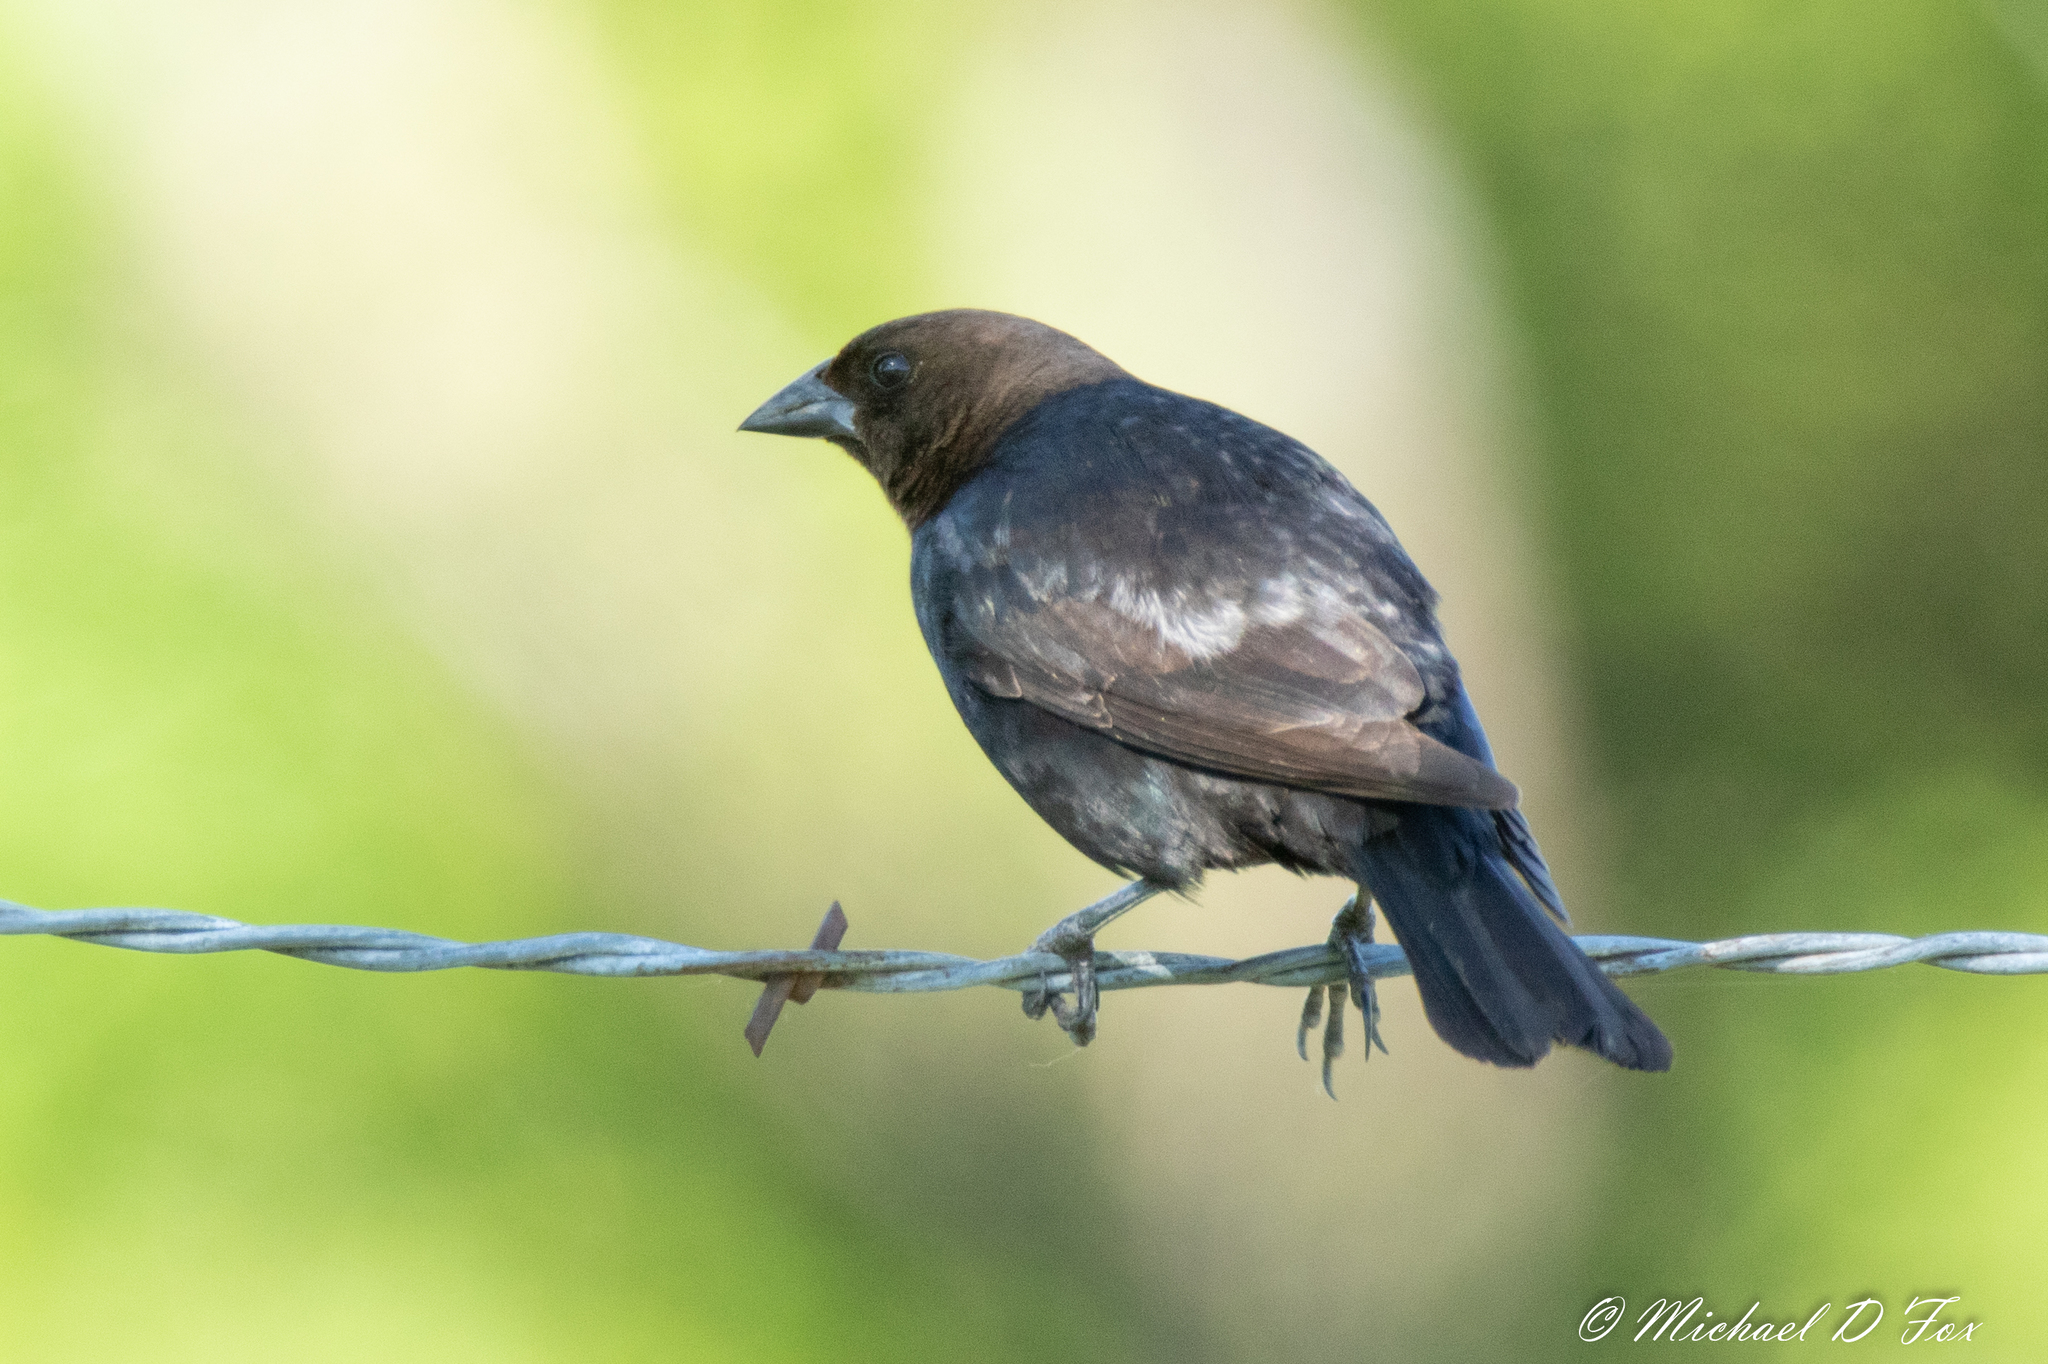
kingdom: Animalia
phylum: Chordata
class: Aves
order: Passeriformes
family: Icteridae
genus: Molothrus
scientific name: Molothrus ater
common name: Brown-headed cowbird
